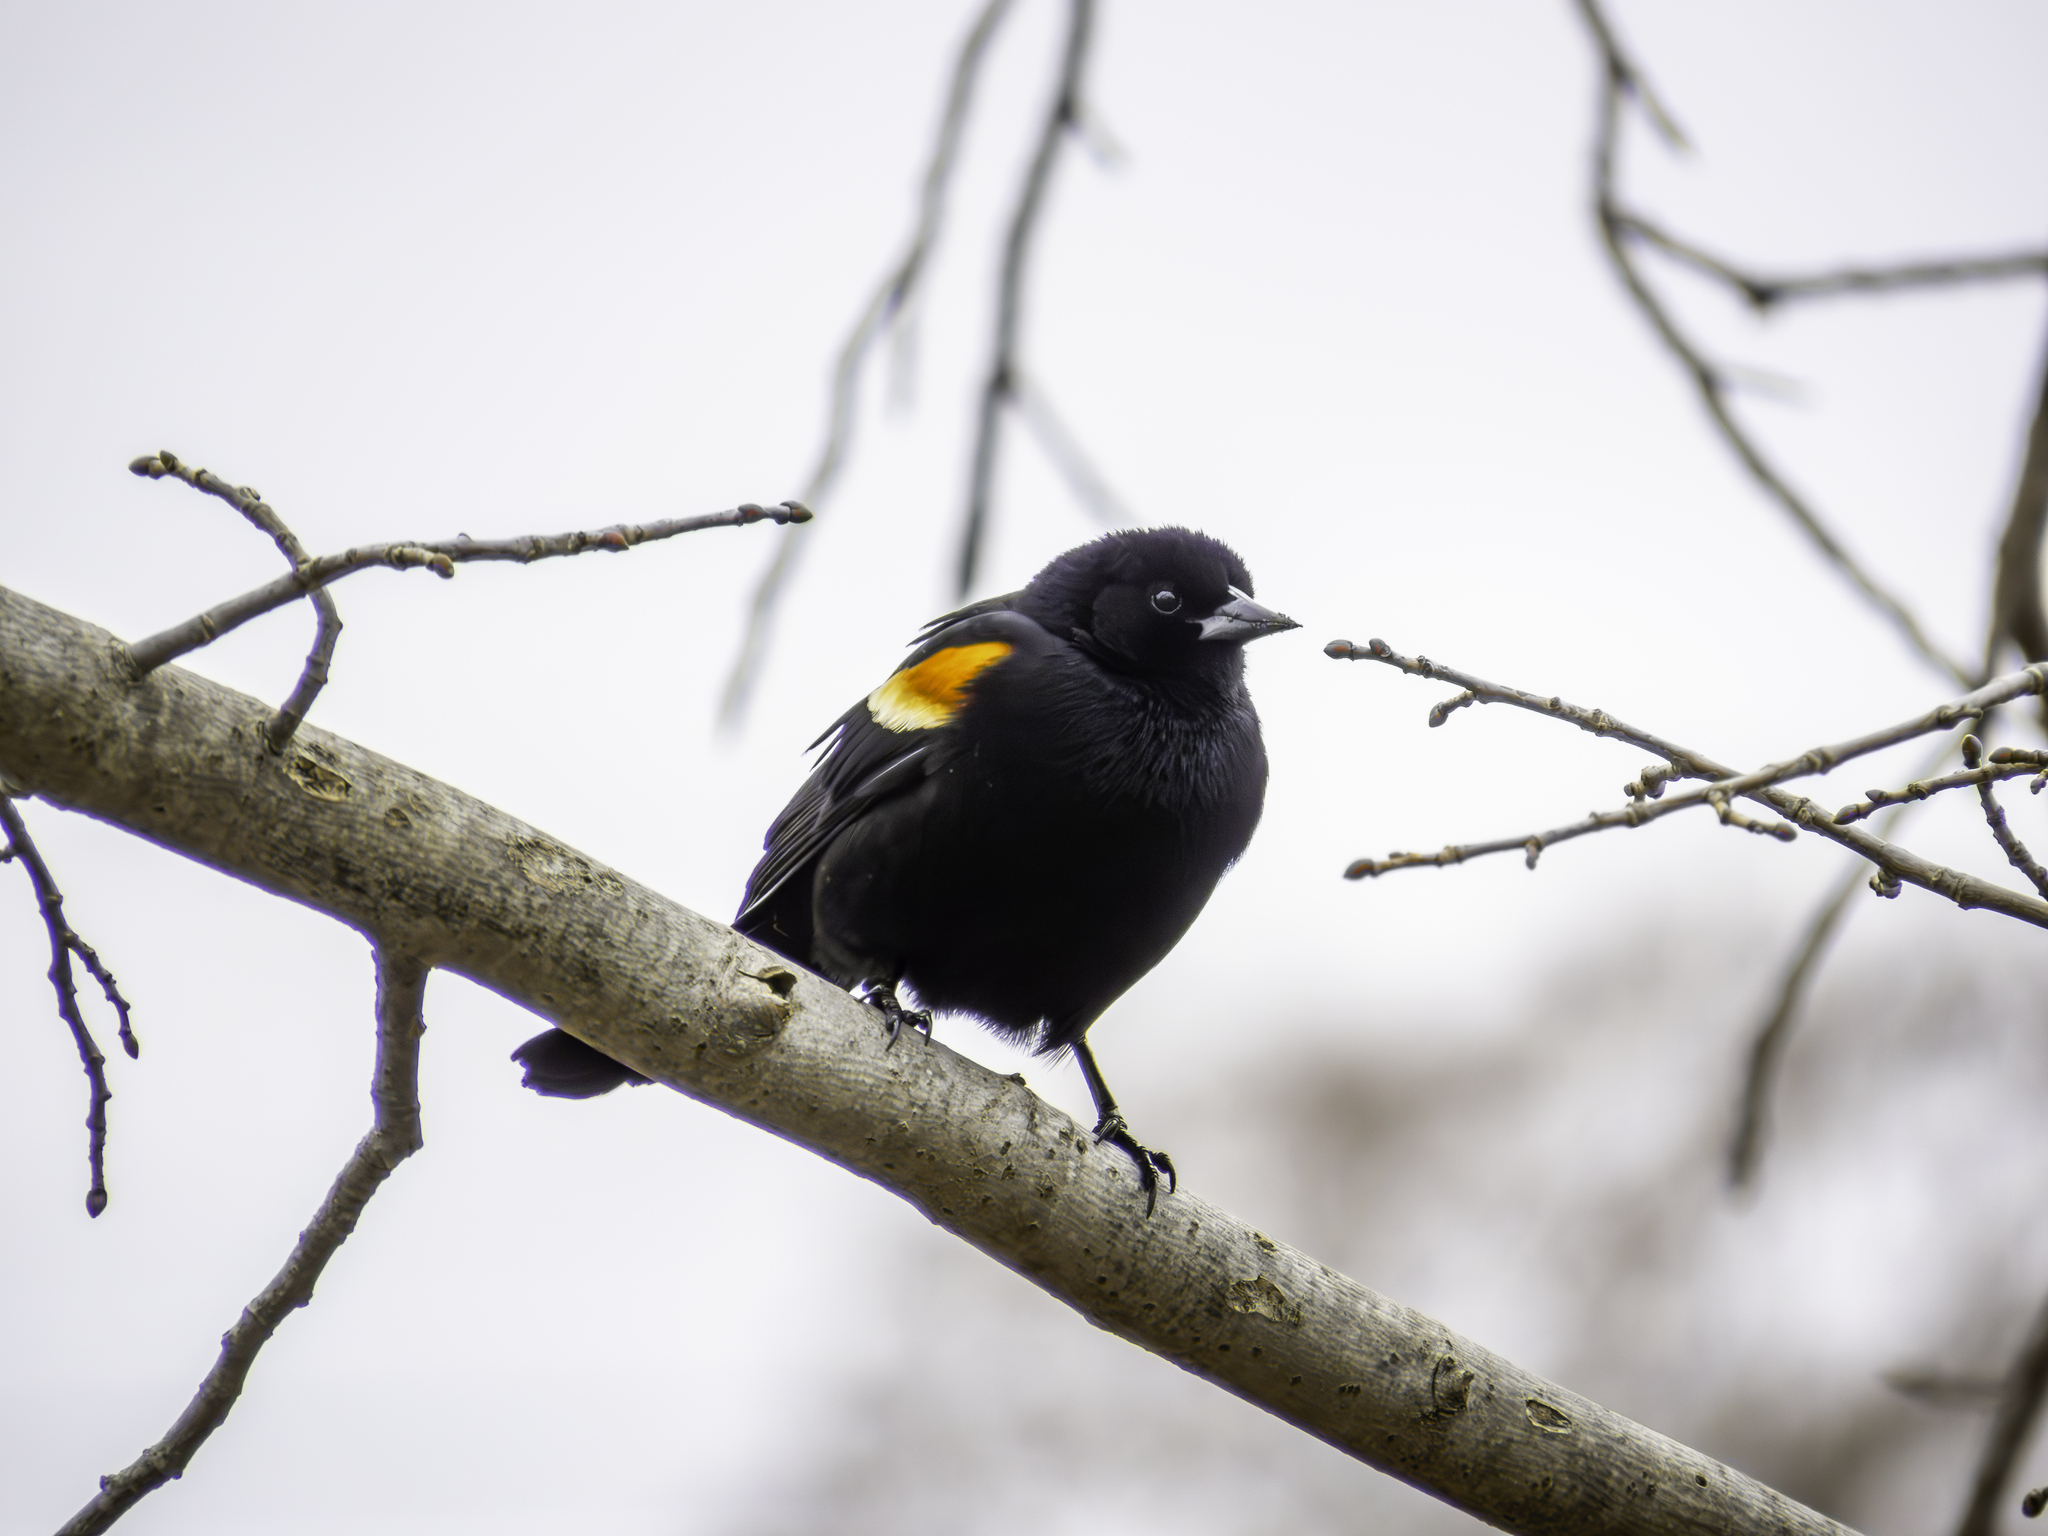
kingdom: Animalia
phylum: Chordata
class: Aves
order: Passeriformes
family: Icteridae
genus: Agelaius
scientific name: Agelaius phoeniceus
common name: Red-winged blackbird
